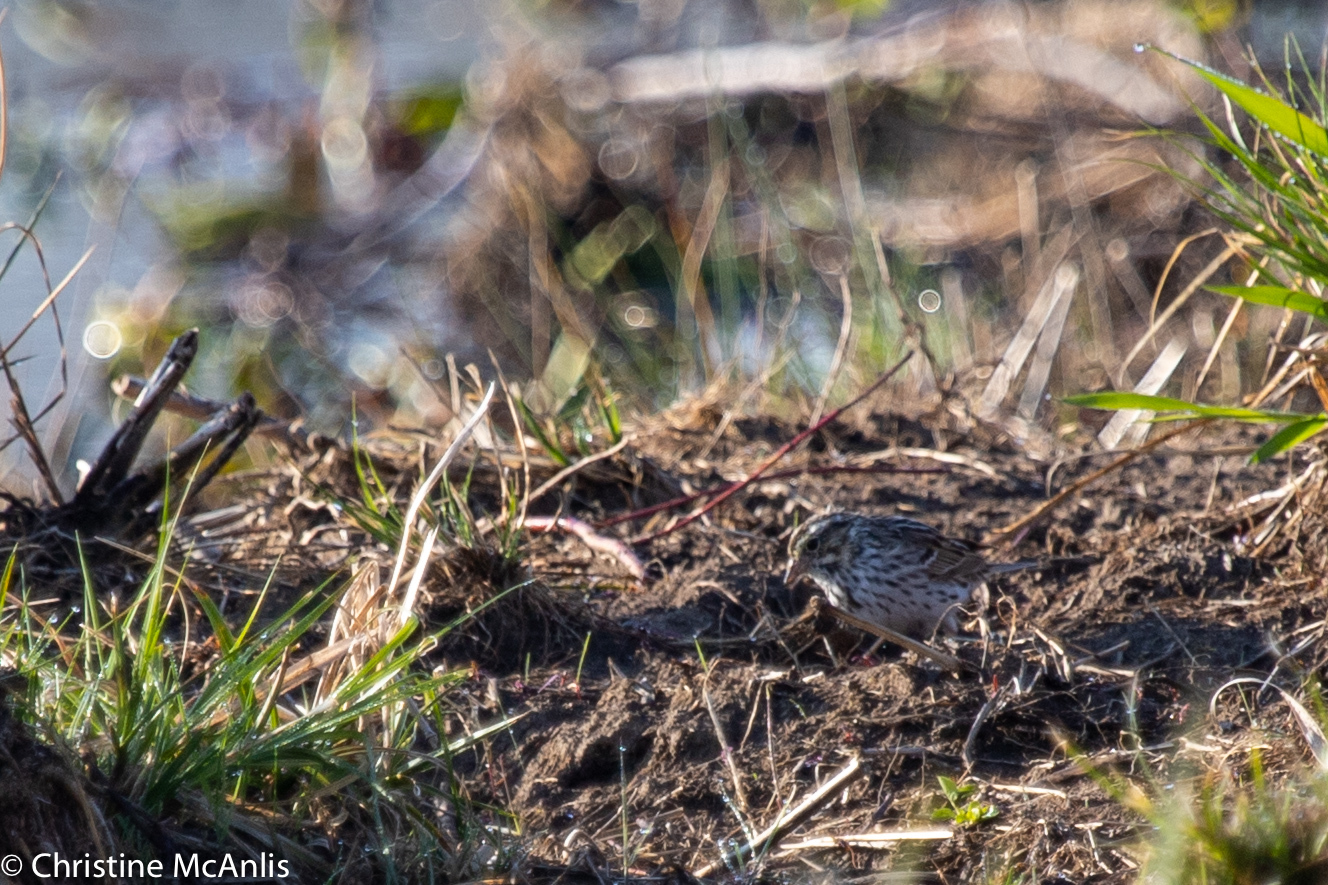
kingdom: Animalia
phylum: Chordata
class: Aves
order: Passeriformes
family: Passerellidae
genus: Passerculus
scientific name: Passerculus sandwichensis
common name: Savannah sparrow
